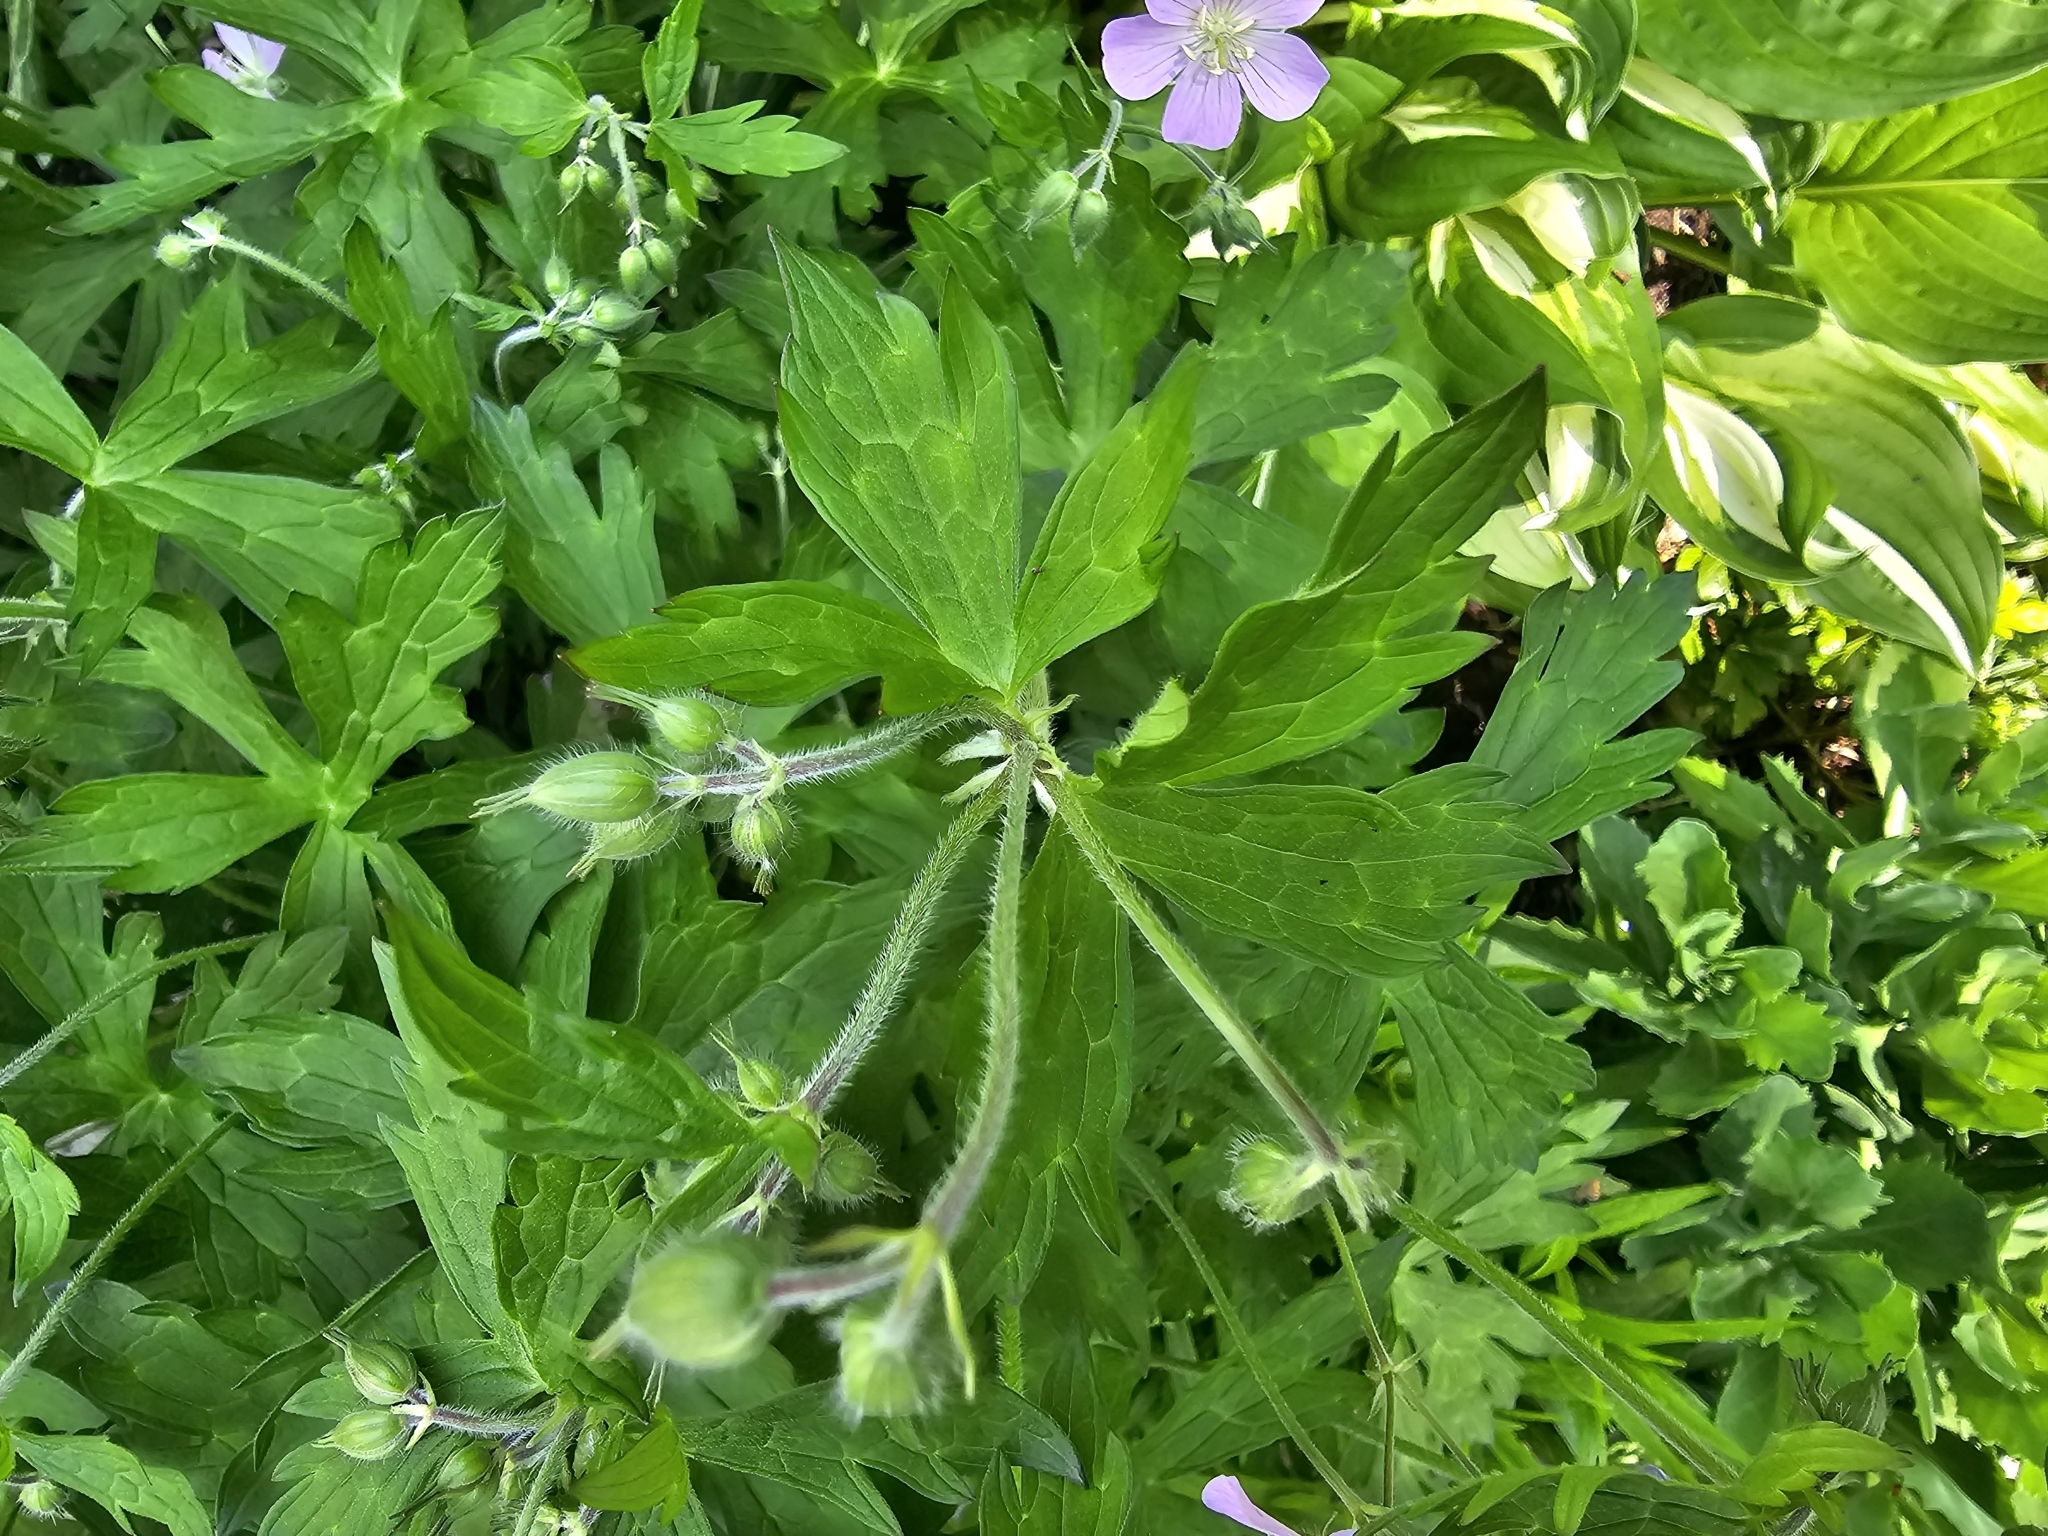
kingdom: Plantae
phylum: Tracheophyta
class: Magnoliopsida
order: Geraniales
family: Geraniaceae
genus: Geranium
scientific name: Geranium maculatum
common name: Spotted geranium
